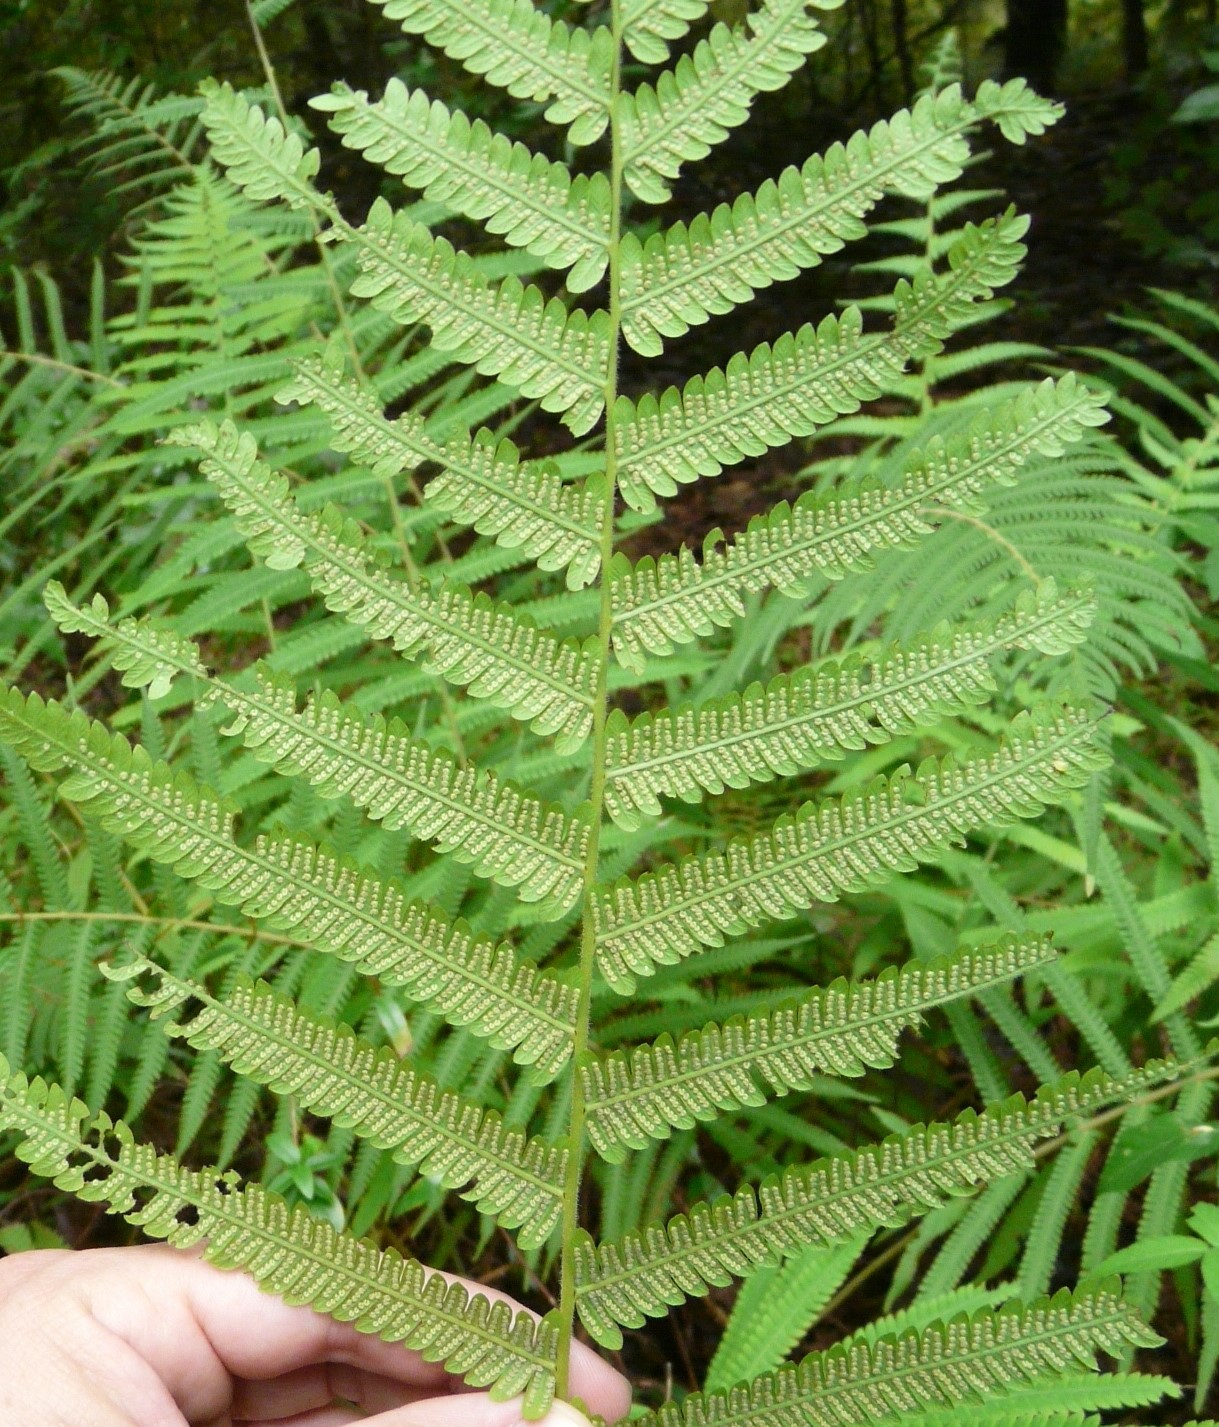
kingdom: Plantae
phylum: Tracheophyta
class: Polypodiopsida
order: Polypodiales
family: Thelypteridaceae
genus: Pelazoneuron
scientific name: Pelazoneuron kunthii
